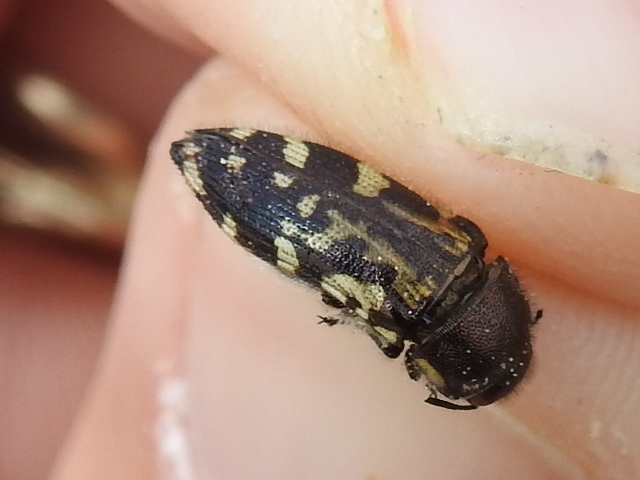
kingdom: Animalia
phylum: Arthropoda
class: Insecta
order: Coleoptera
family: Buprestidae
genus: Acmaeodera
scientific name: Acmaeodera mixta
